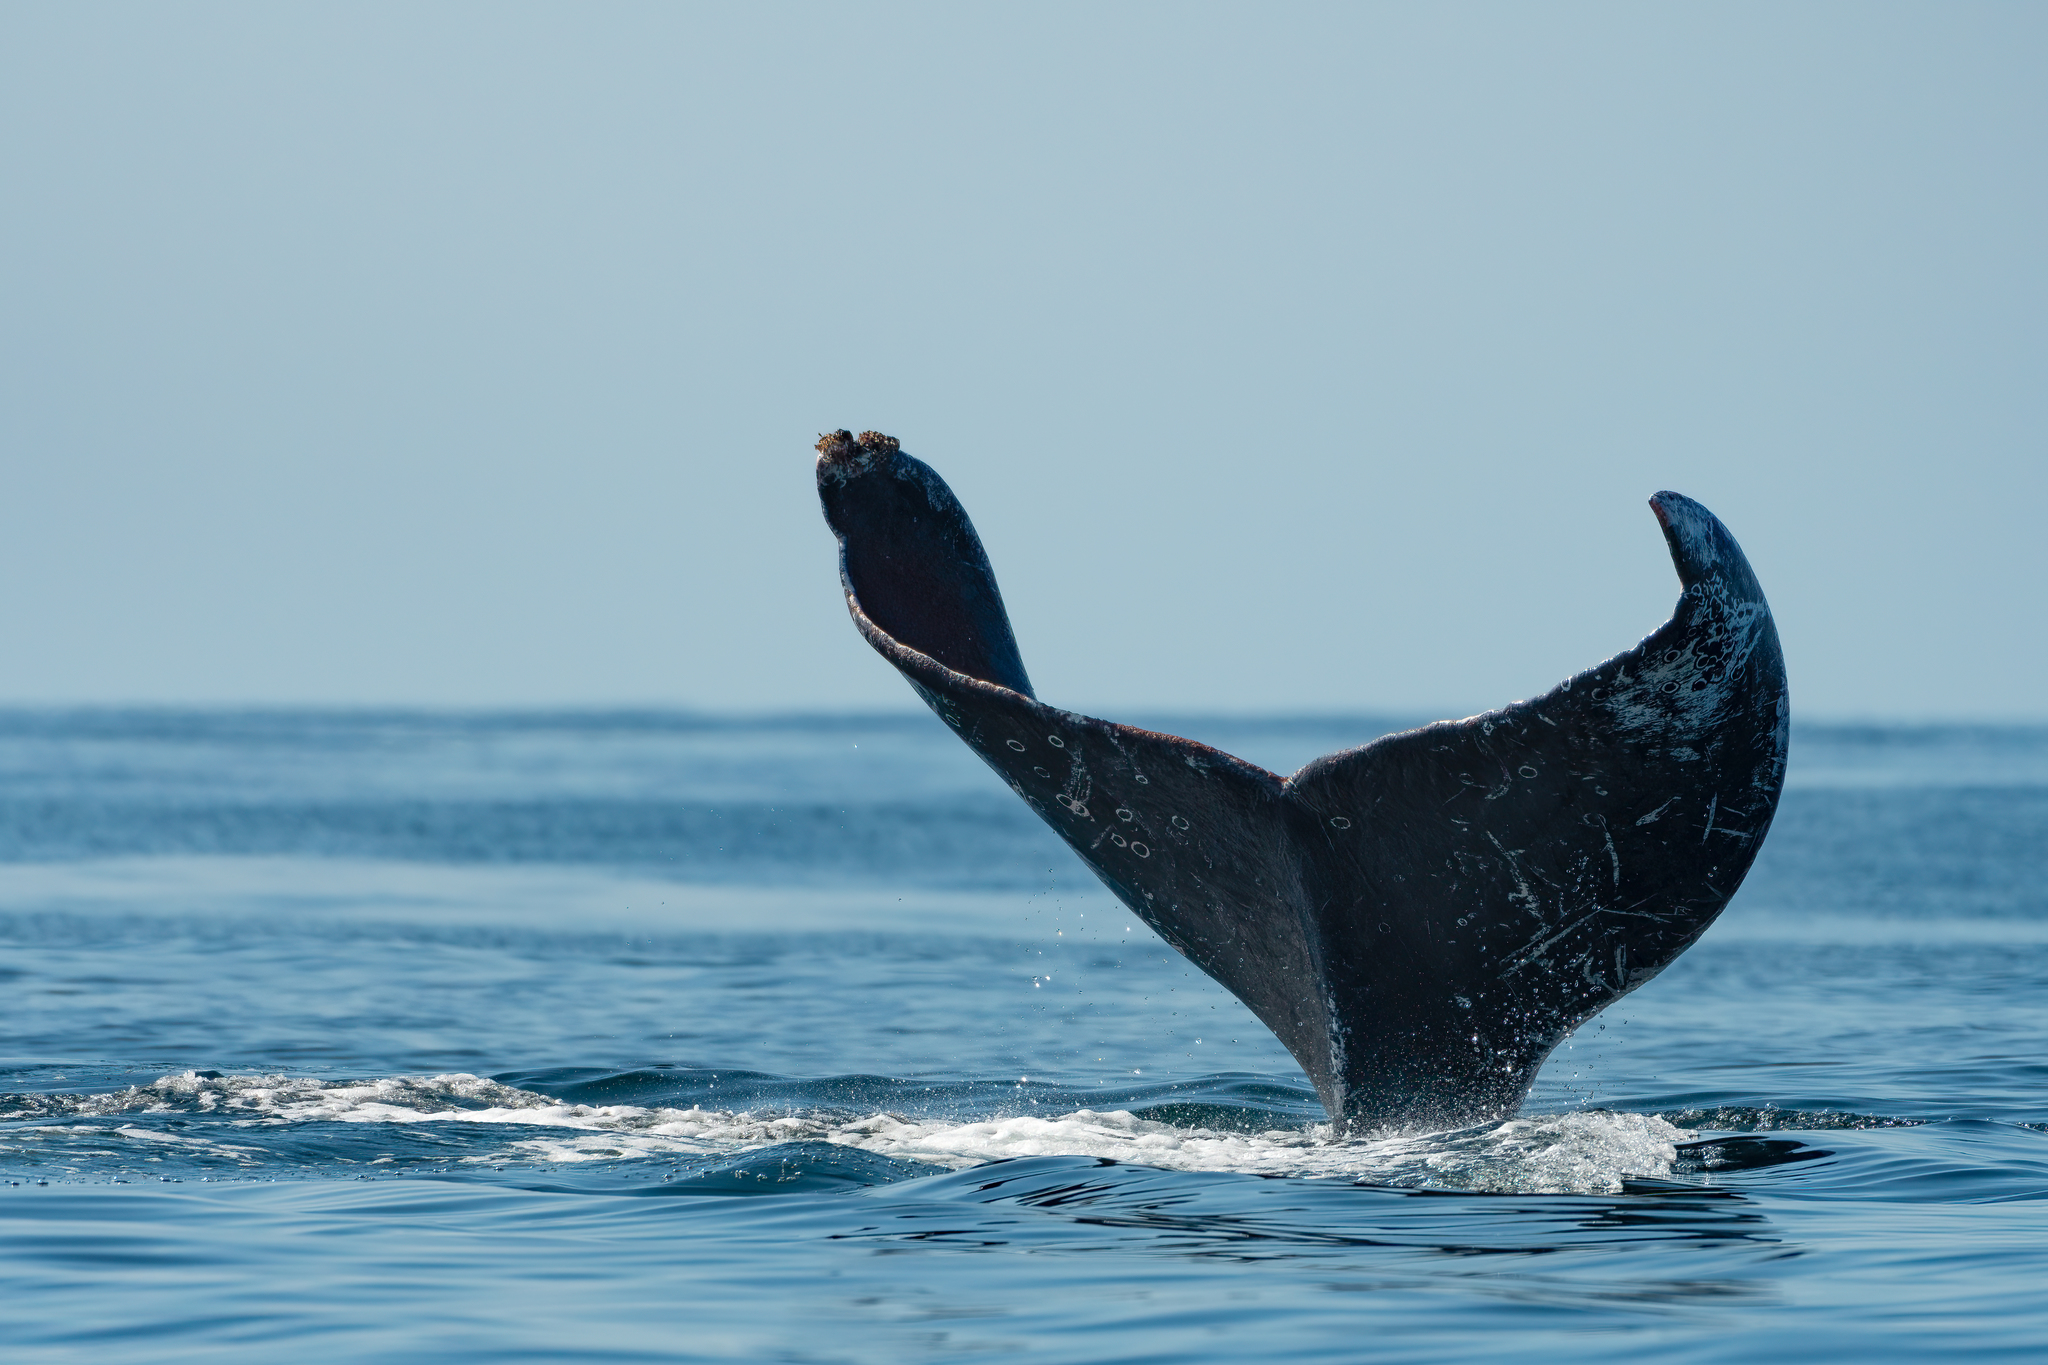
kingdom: Animalia
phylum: Chordata
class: Mammalia
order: Cetacea
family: Balaenopteridae
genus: Megaptera
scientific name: Megaptera novaeangliae
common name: Humpback whale
